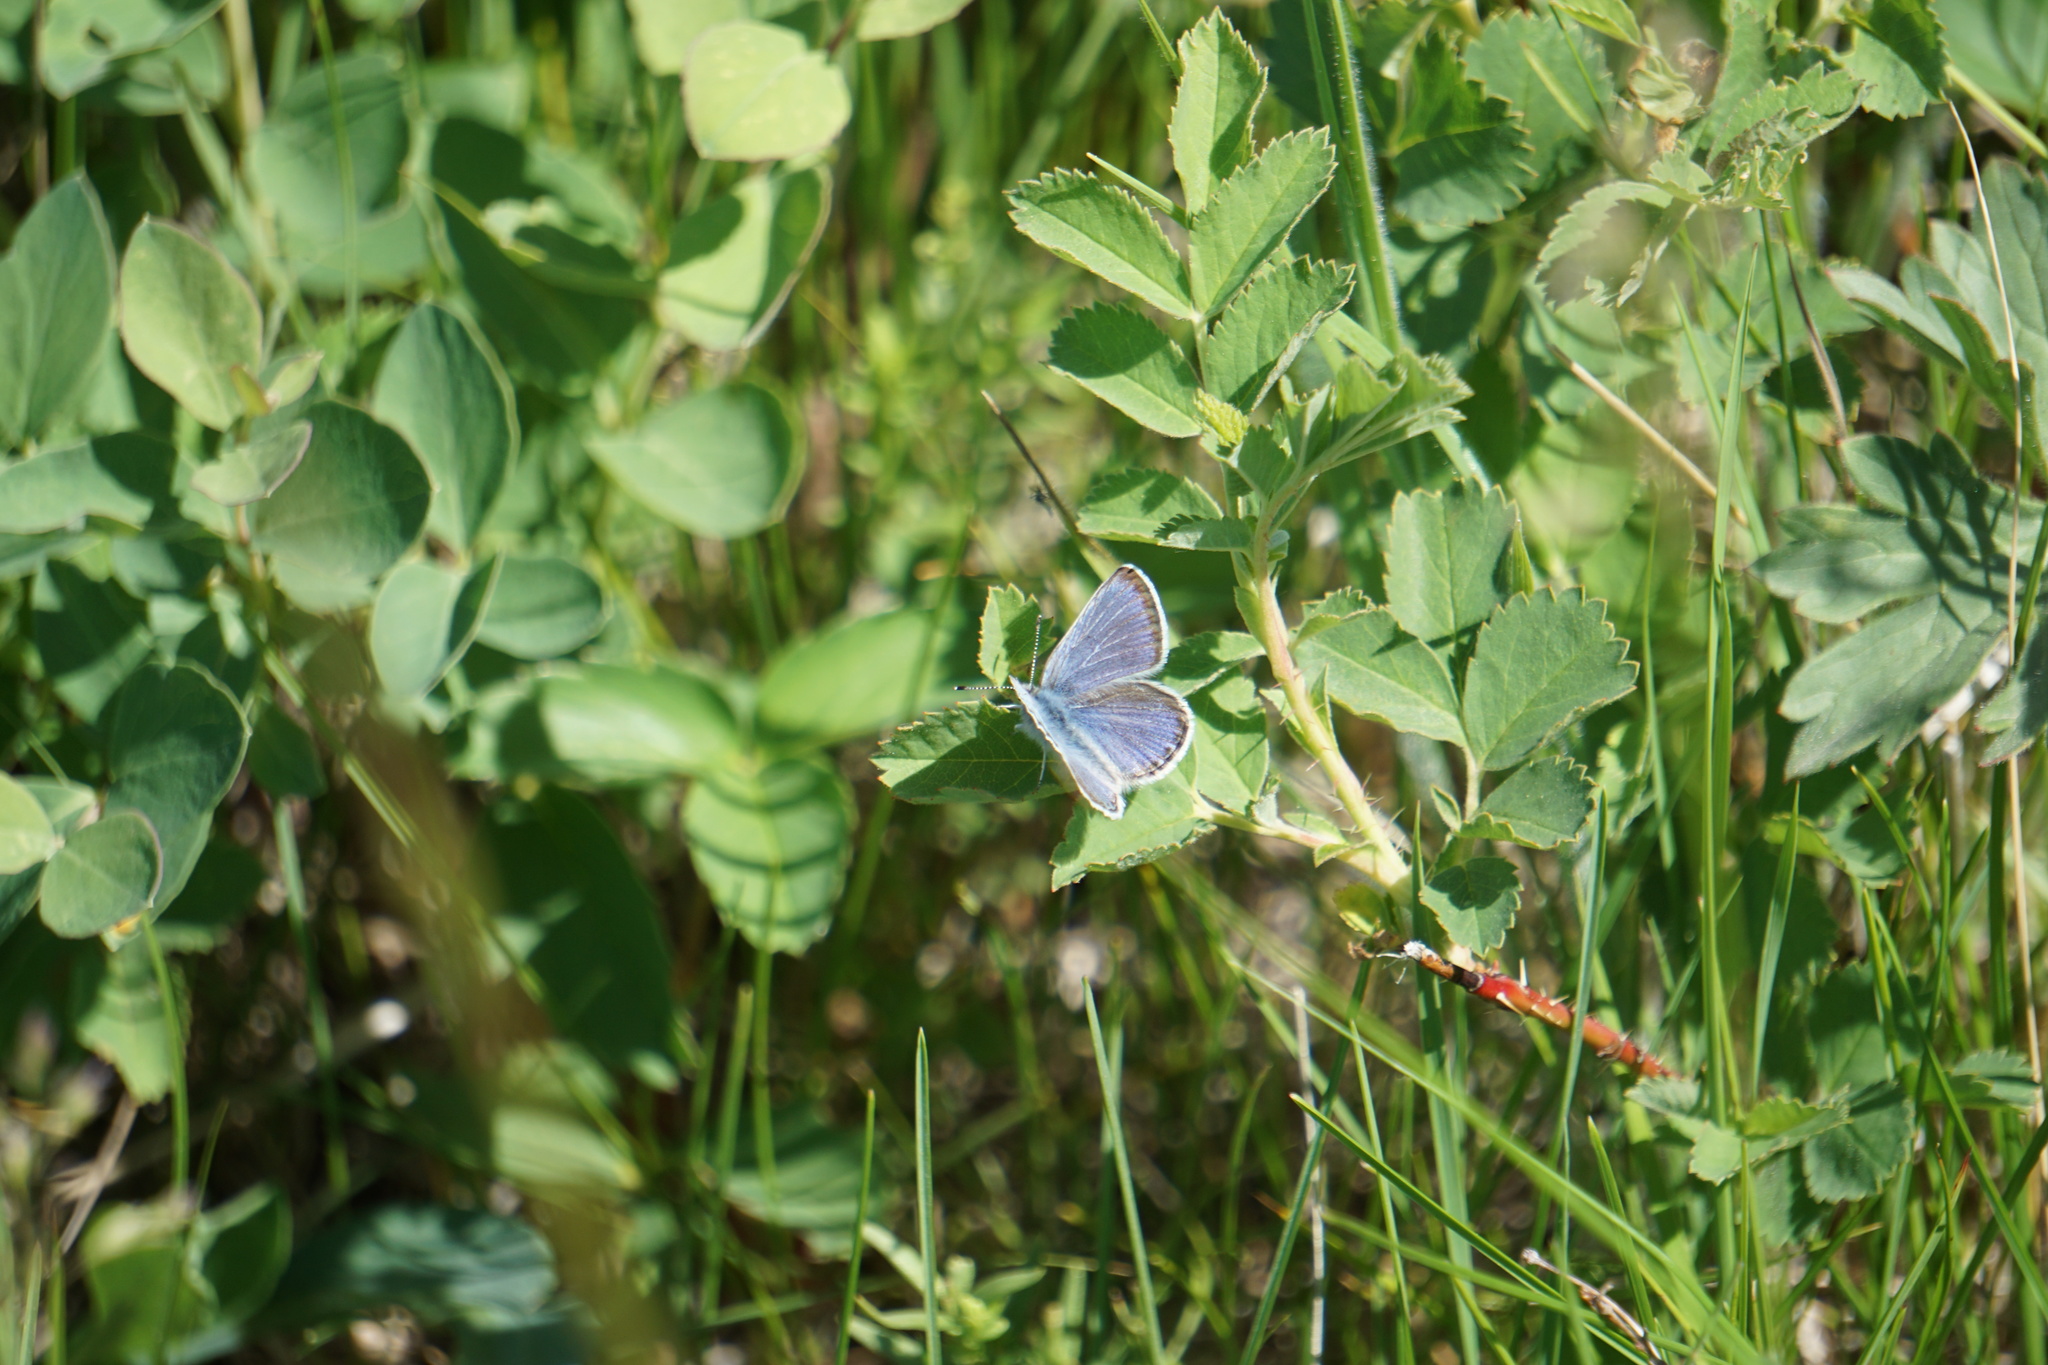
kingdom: Animalia
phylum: Arthropoda
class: Insecta
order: Lepidoptera
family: Lycaenidae
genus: Icaricia
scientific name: Icaricia icarioides
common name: Boisduval's blue
